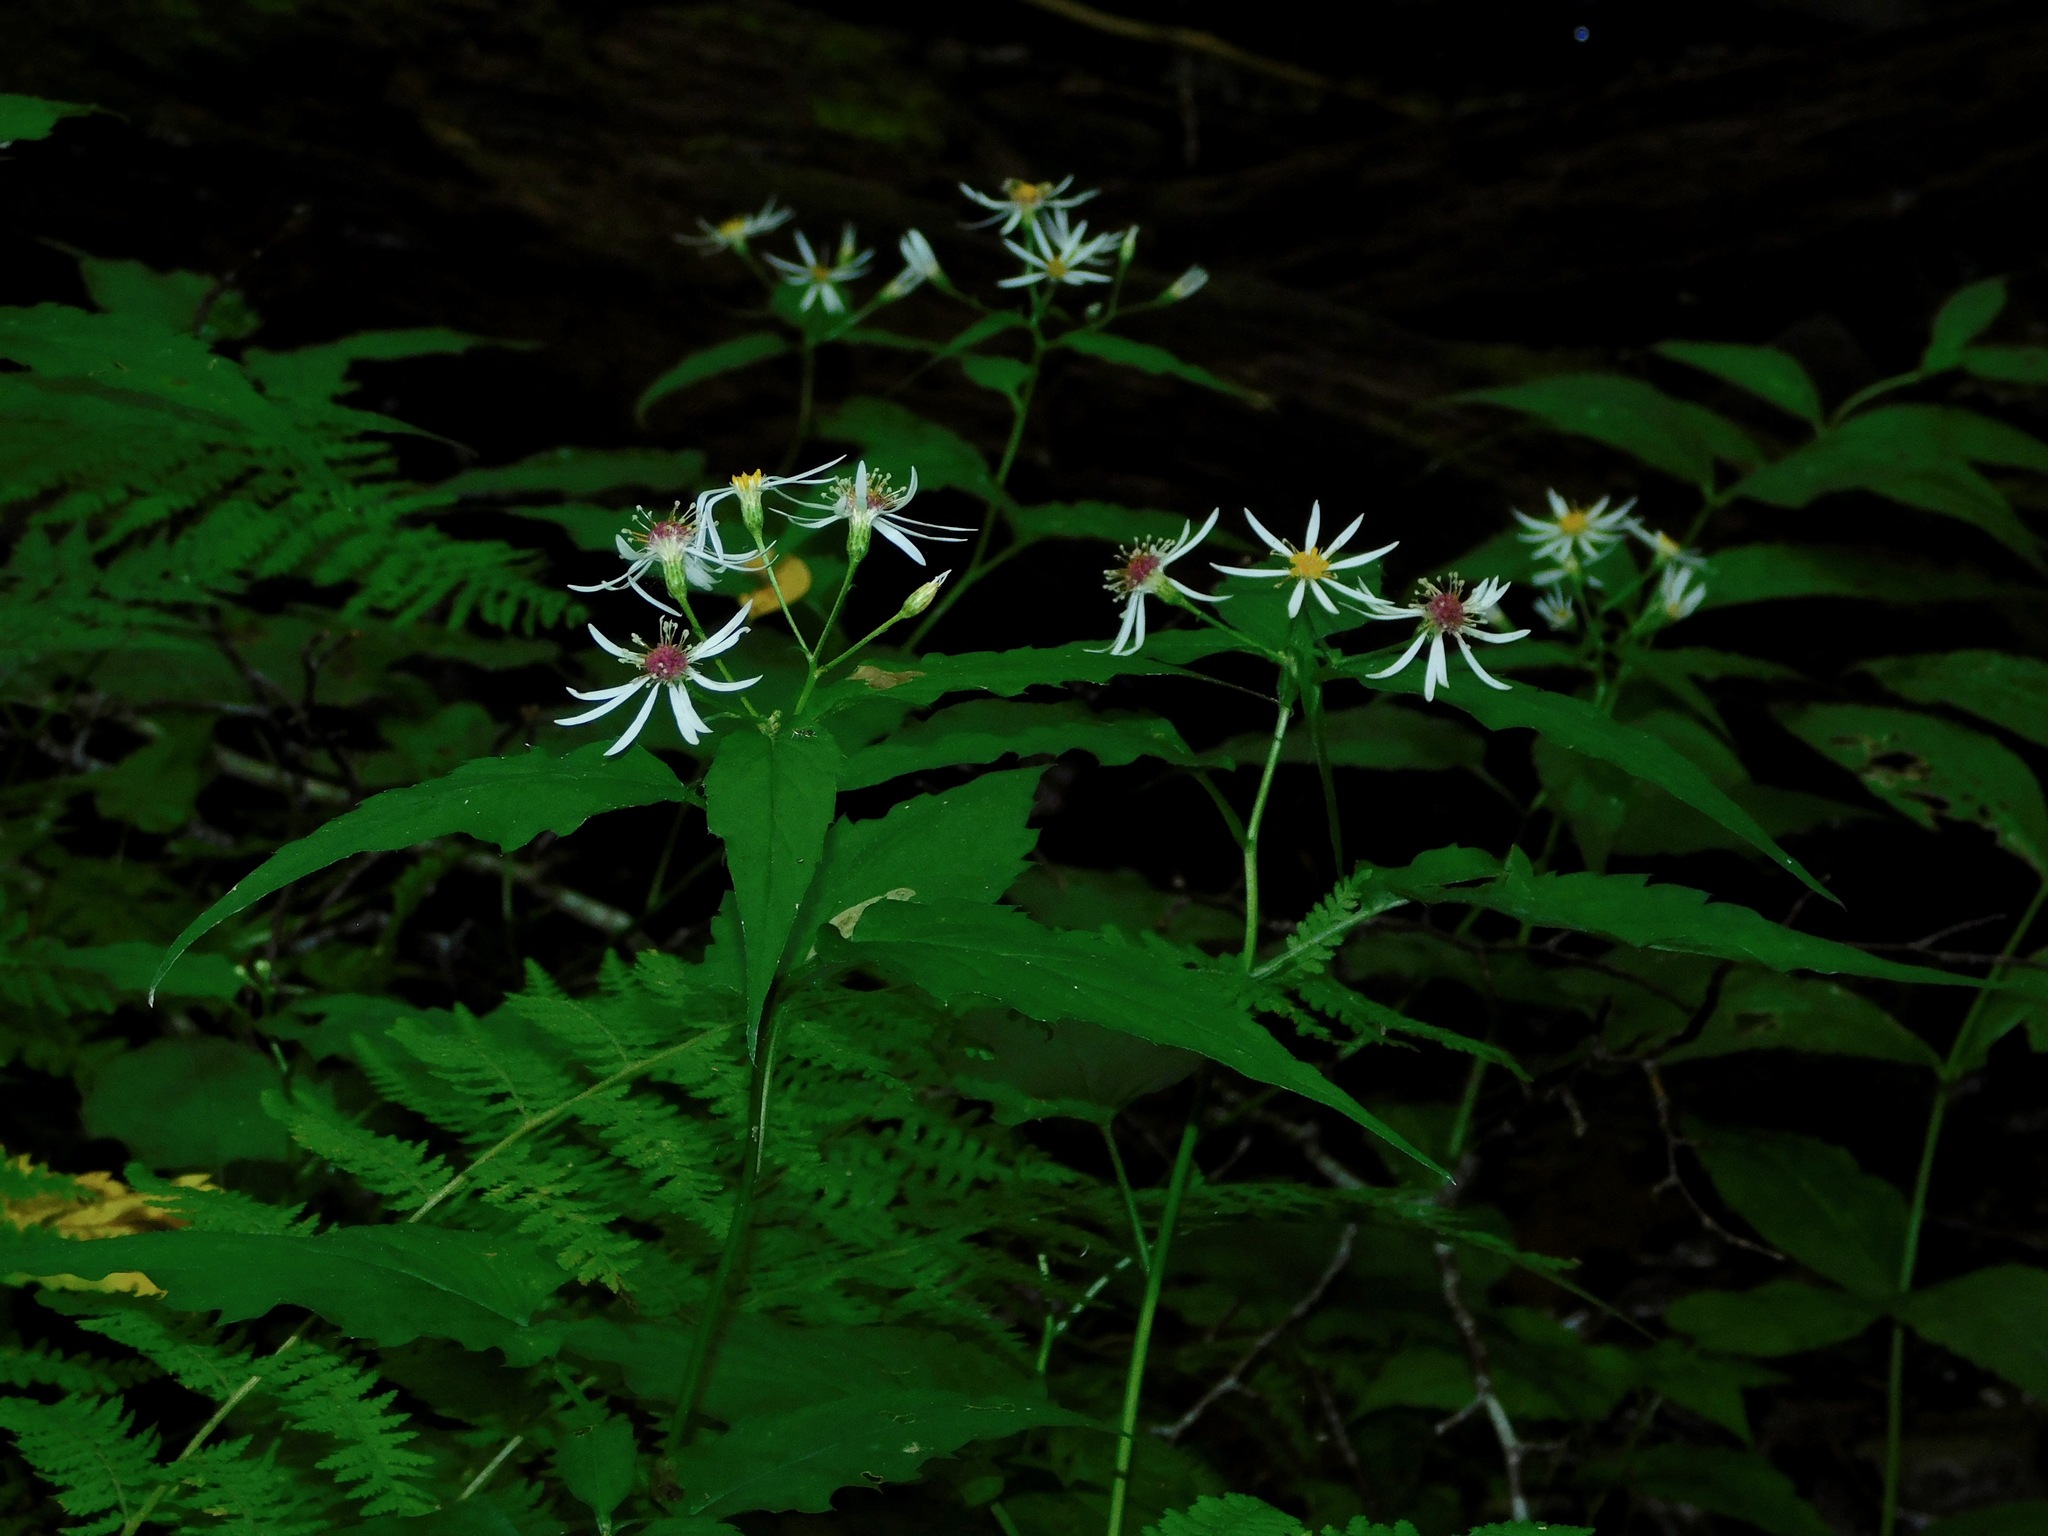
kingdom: Plantae
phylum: Tracheophyta
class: Magnoliopsida
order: Asterales
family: Asteraceae
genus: Eurybia
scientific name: Eurybia divaricata
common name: White wood aster
